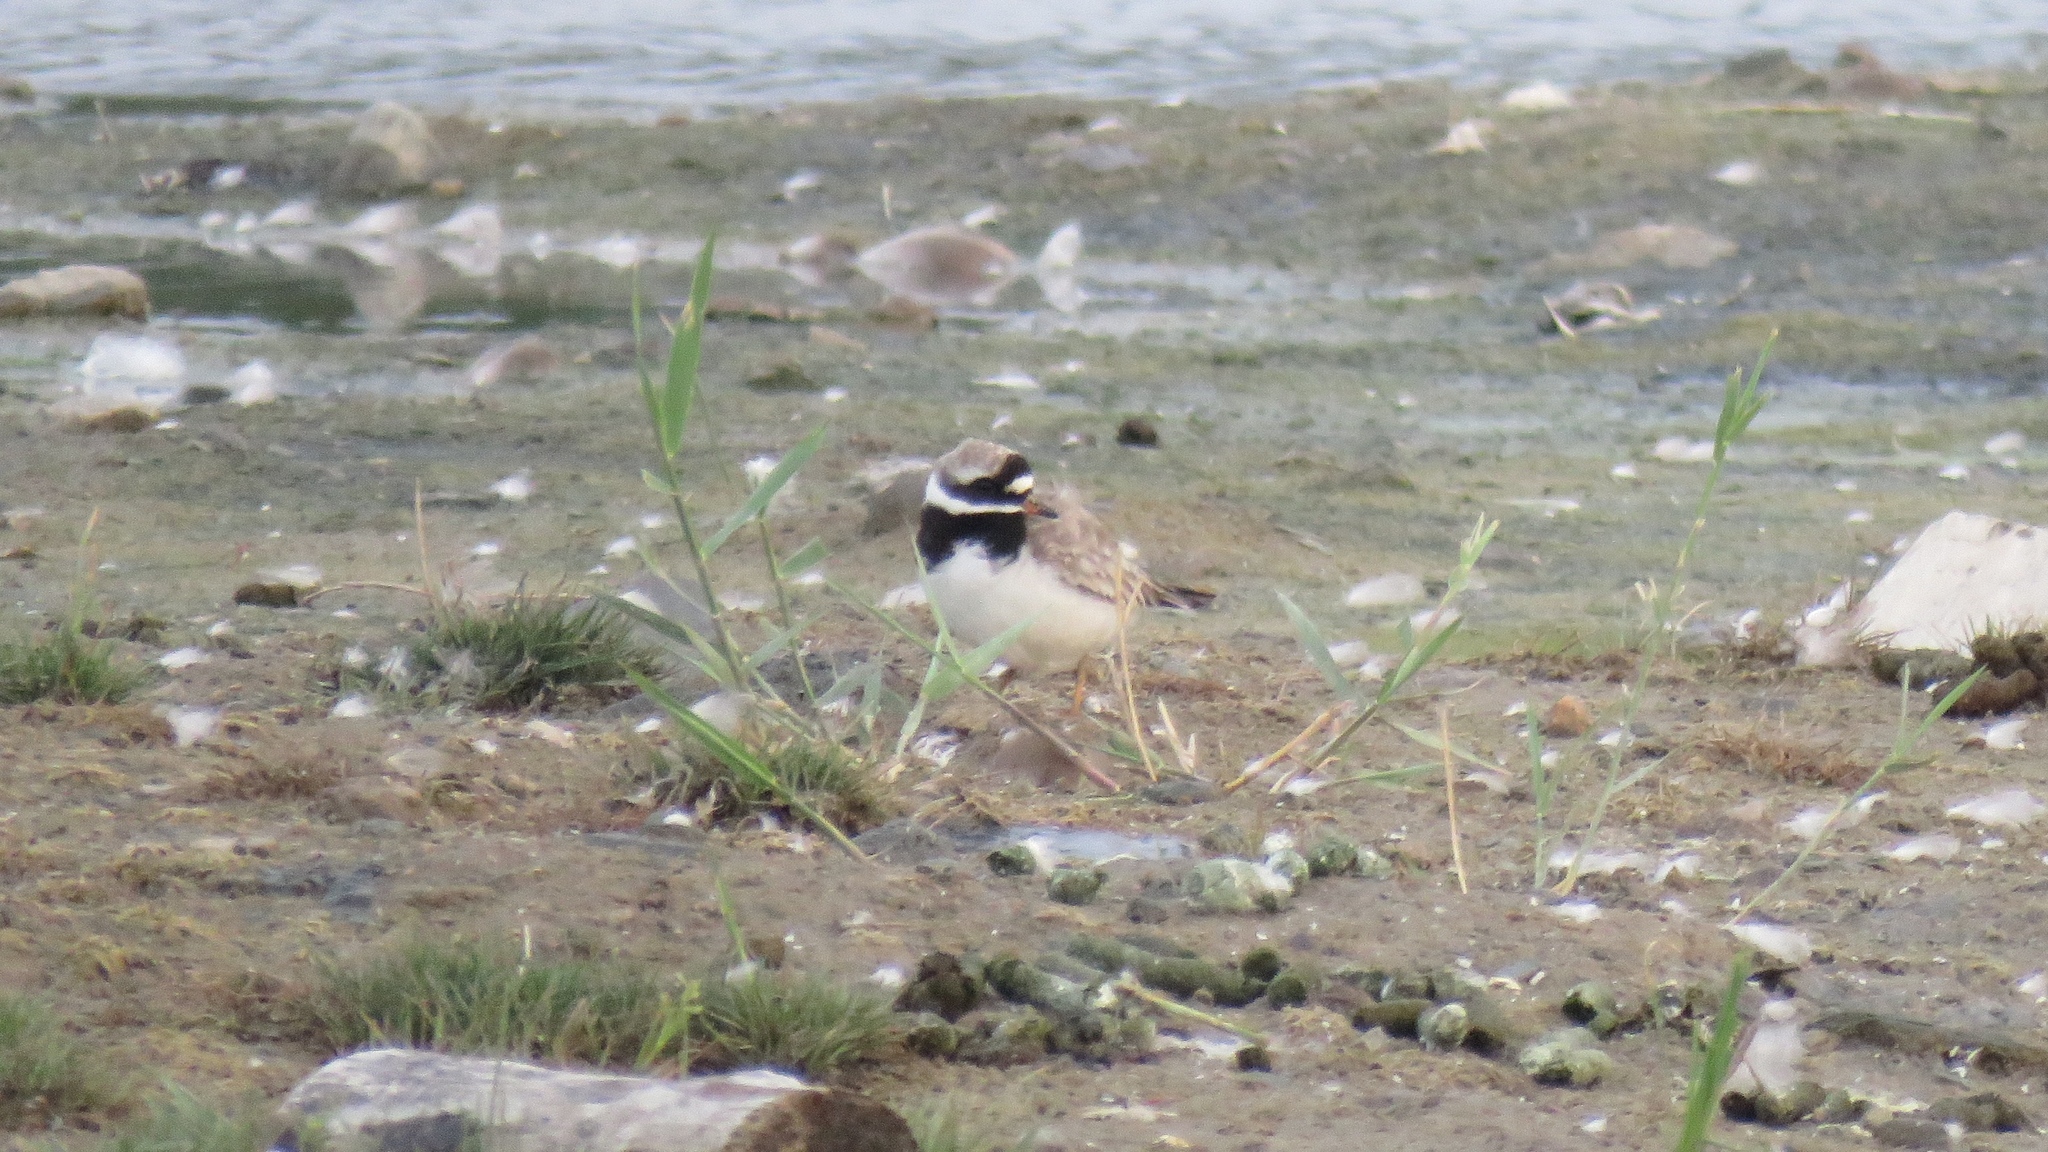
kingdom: Animalia
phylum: Chordata
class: Aves
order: Charadriiformes
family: Charadriidae
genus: Charadrius
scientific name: Charadrius hiaticula
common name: Common ringed plover
